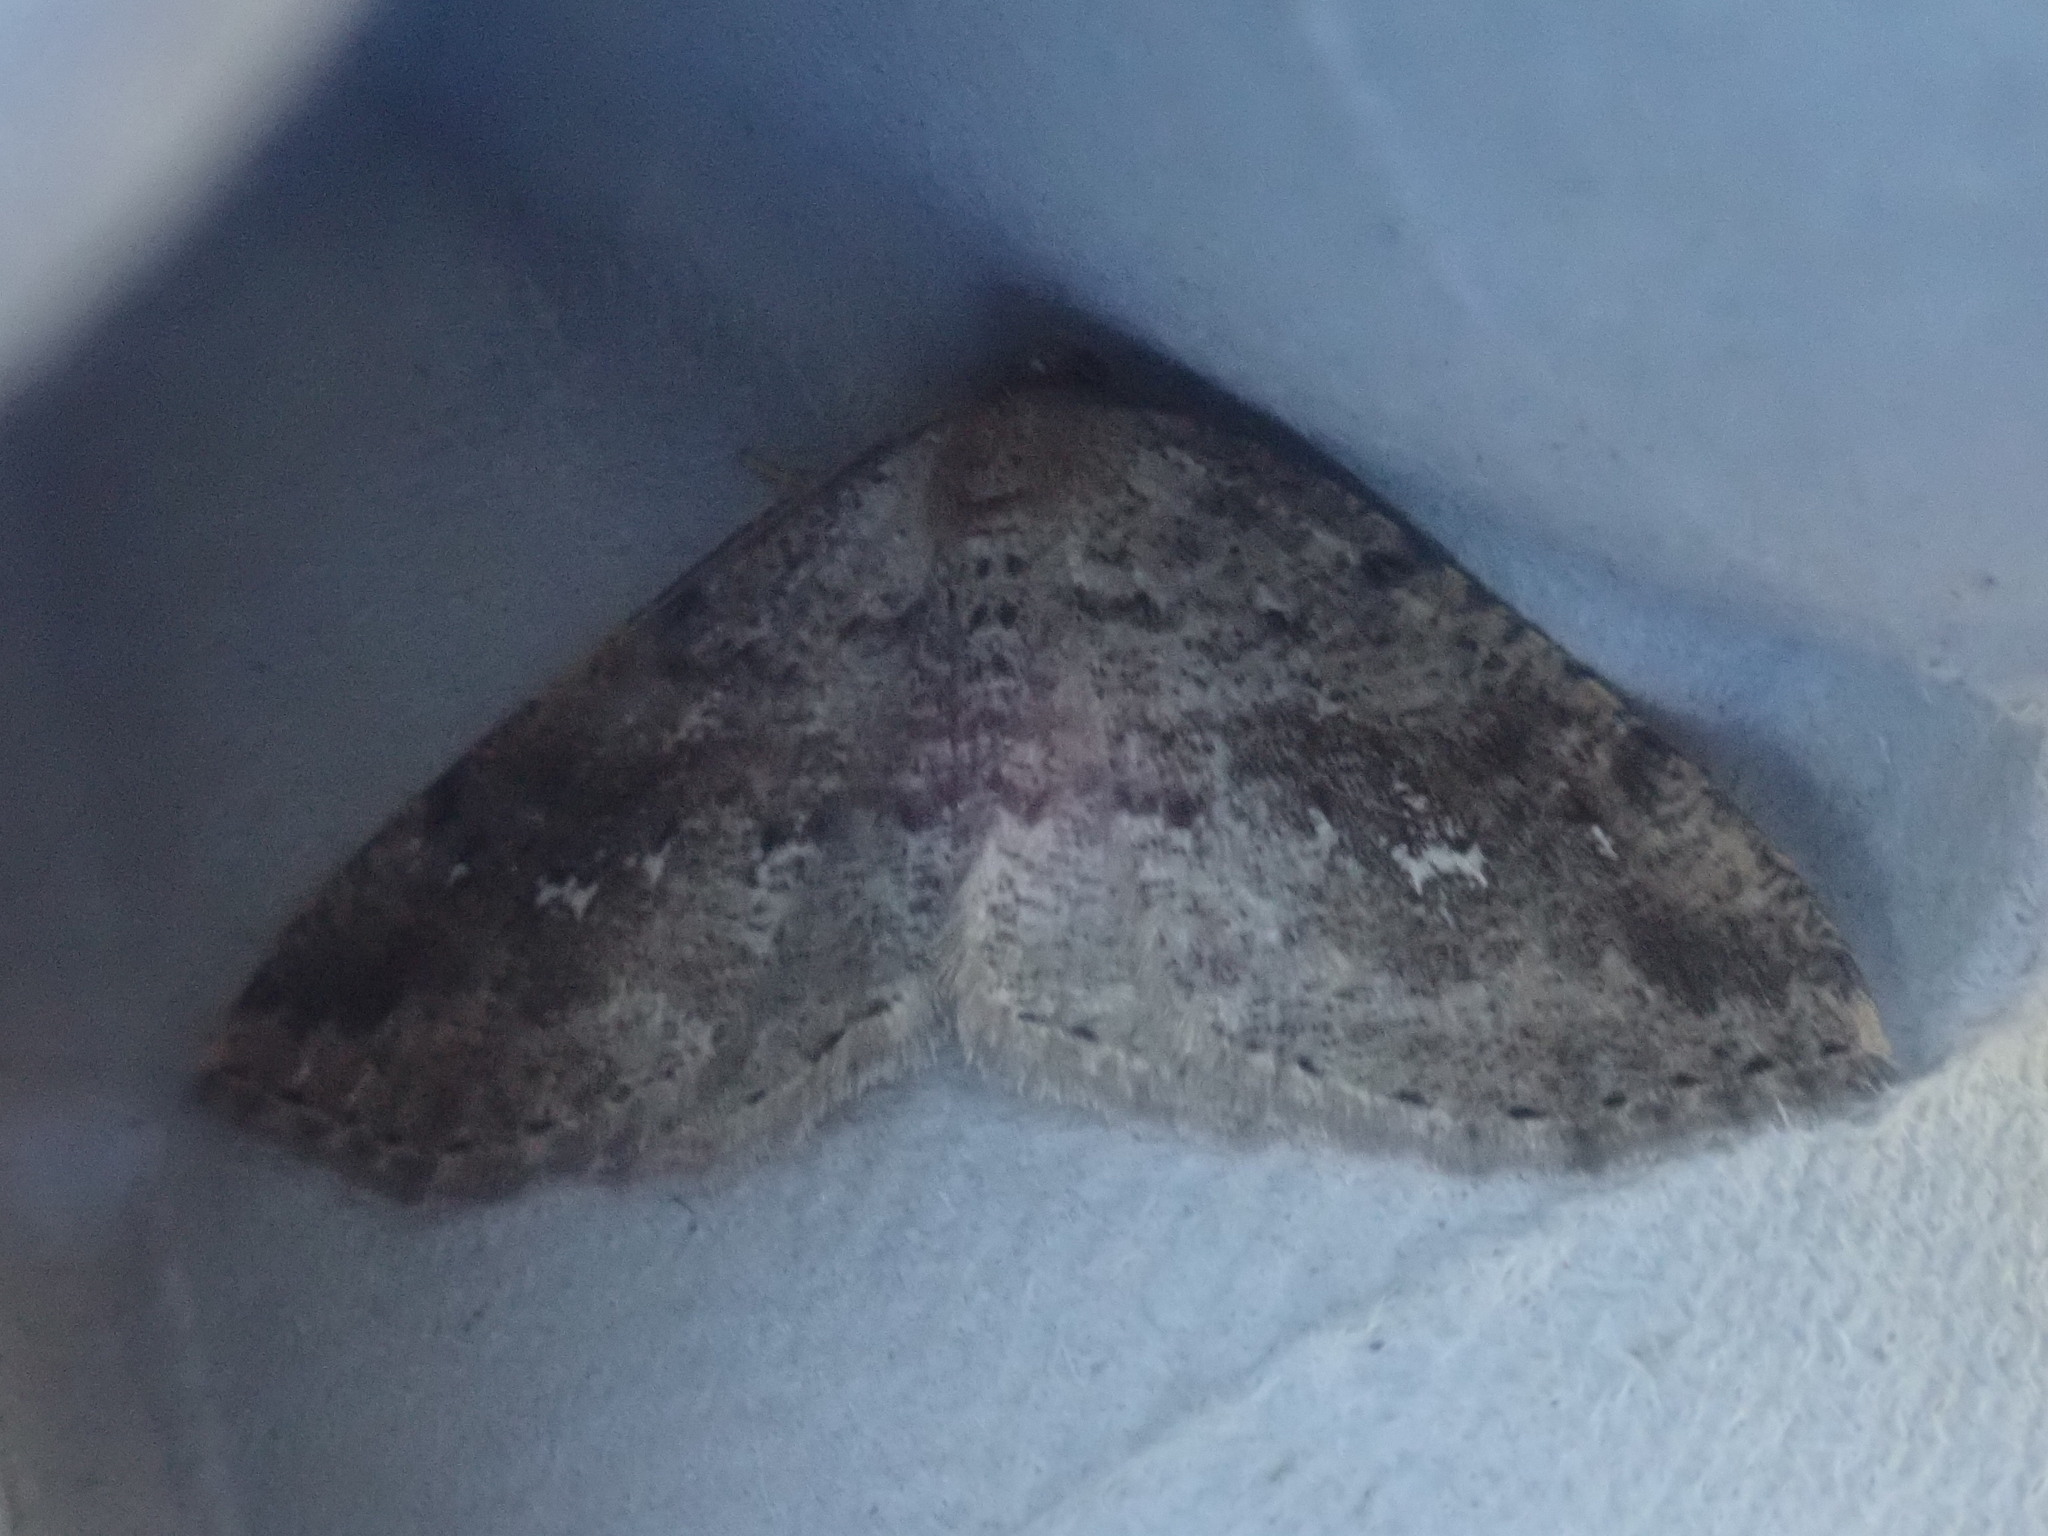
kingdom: Animalia
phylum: Arthropoda
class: Insecta
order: Lepidoptera
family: Geometridae
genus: Homochlodes
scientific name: Homochlodes fritillaria
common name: Pale homochlodes
